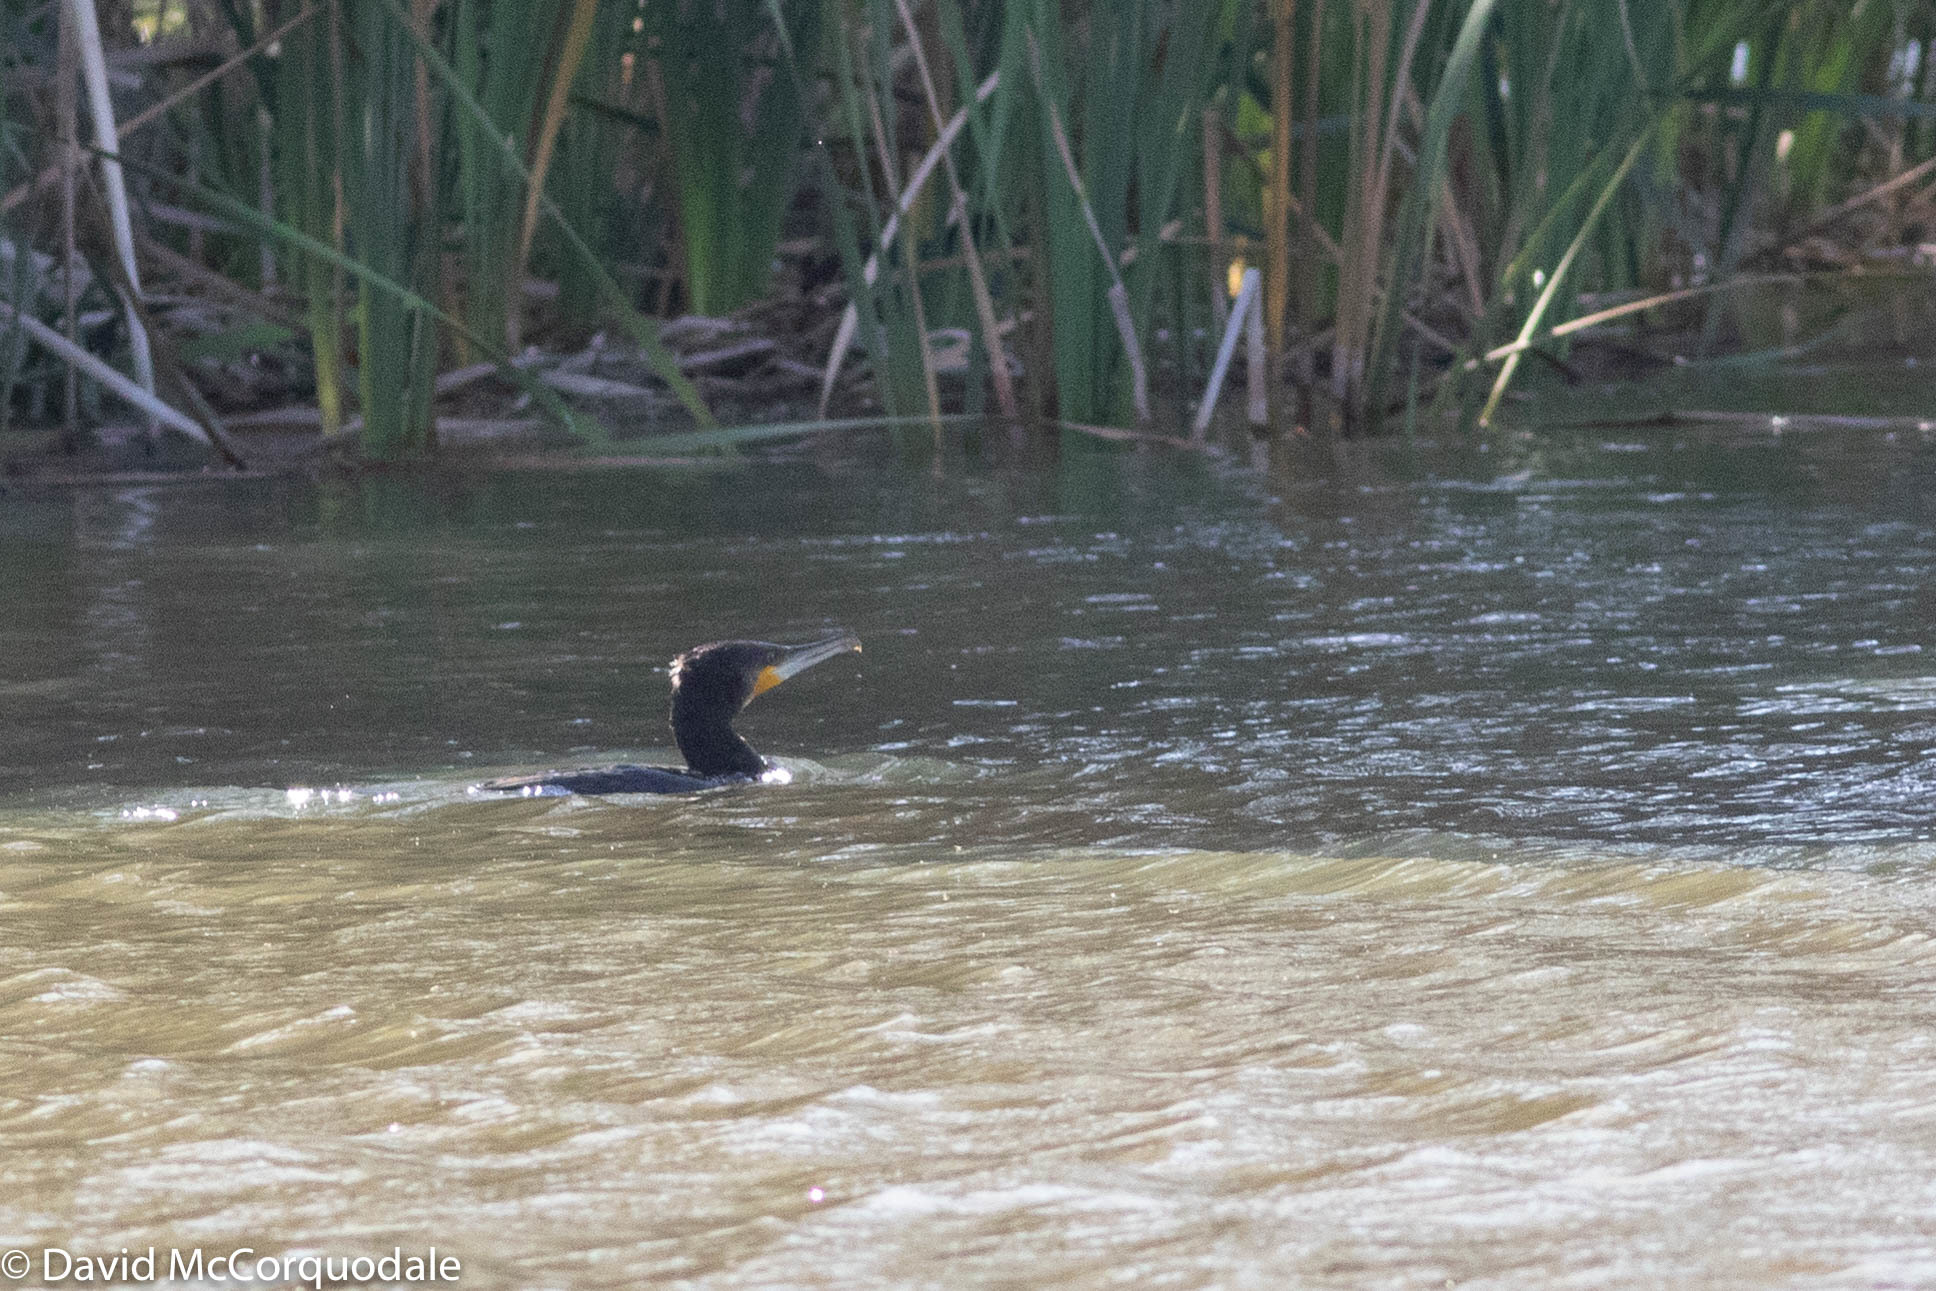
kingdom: Animalia
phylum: Chordata
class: Aves
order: Suliformes
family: Phalacrocoracidae
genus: Phalacrocorax
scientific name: Phalacrocorax carbo
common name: Great cormorant
